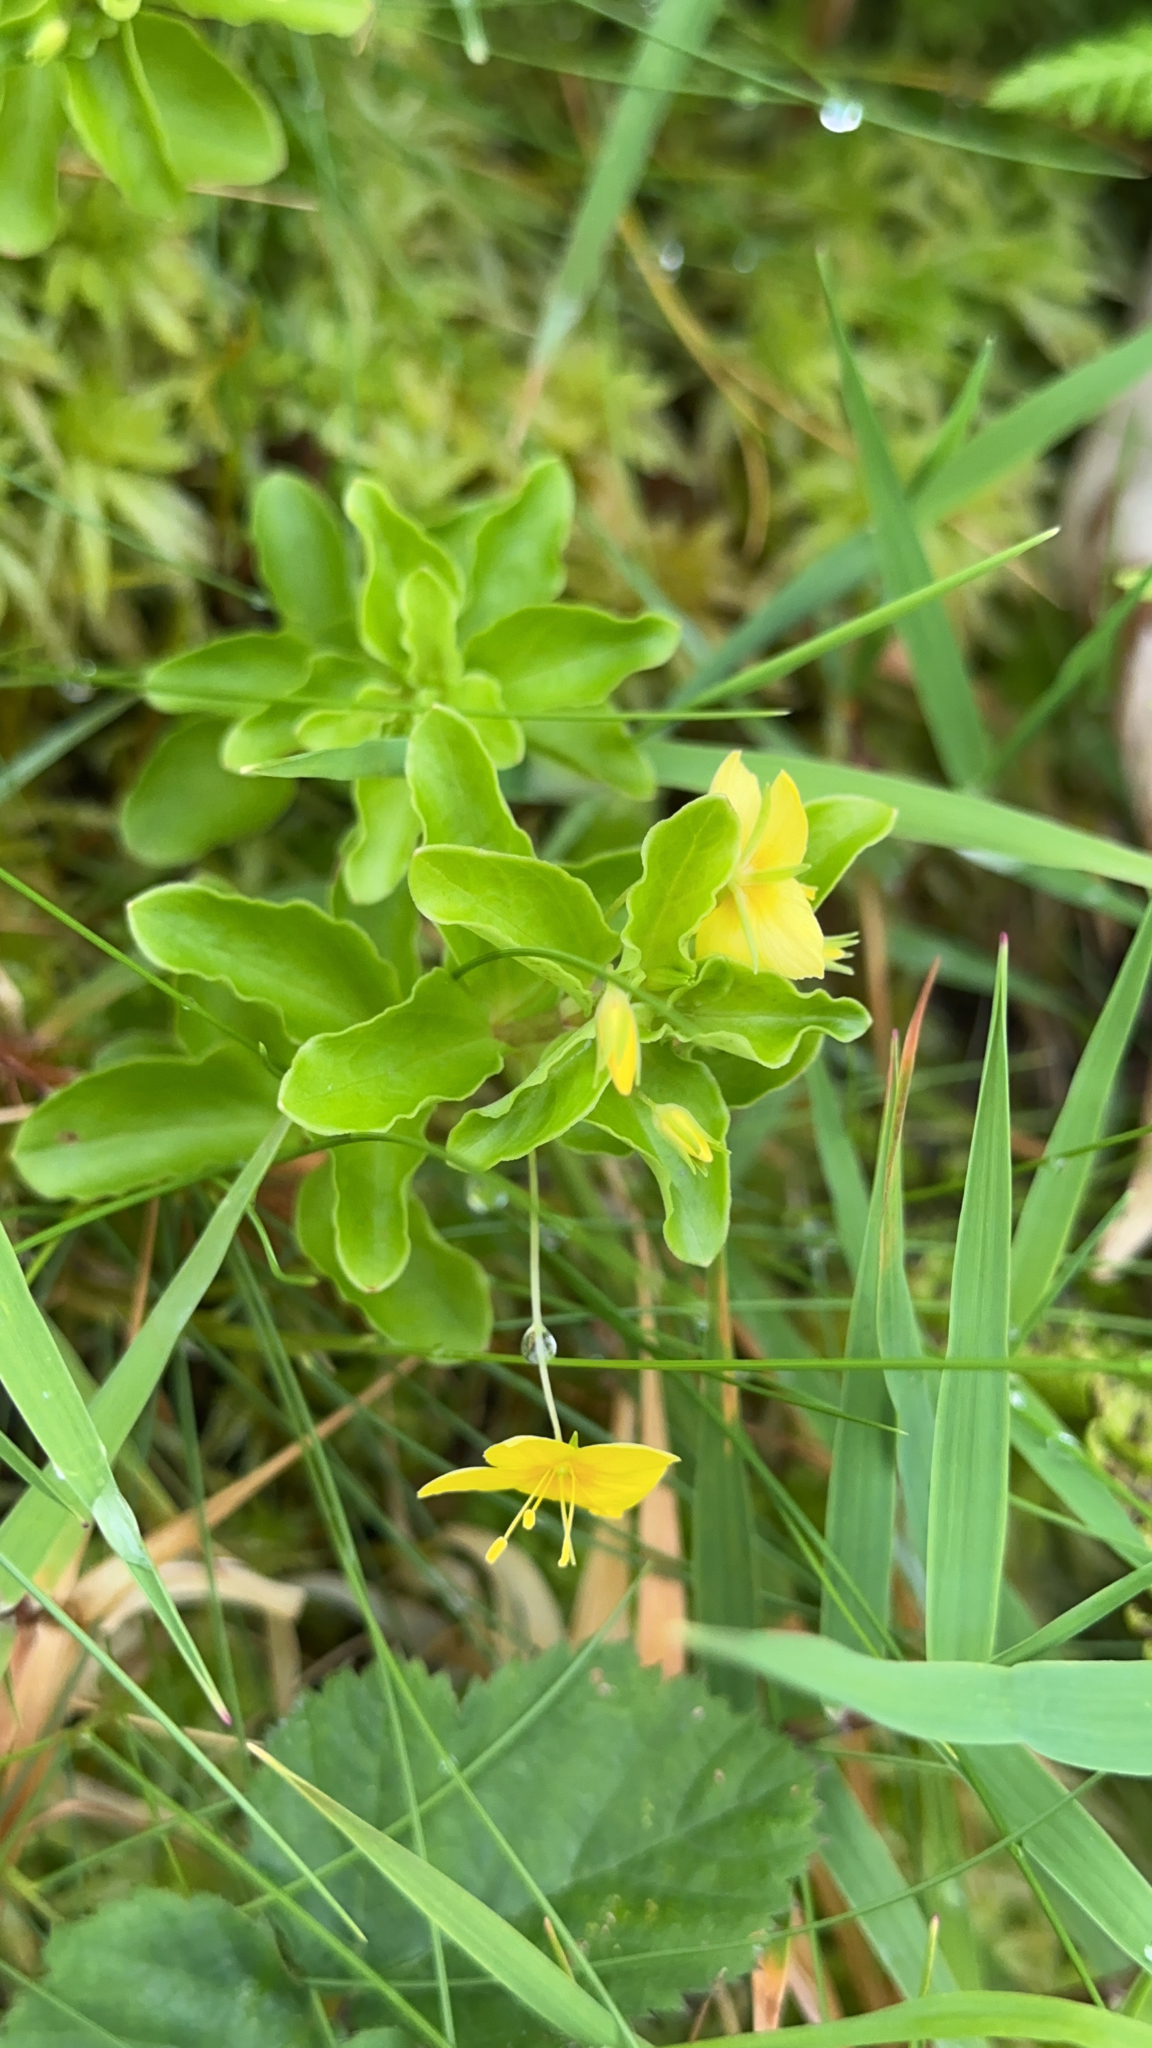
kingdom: Plantae
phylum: Tracheophyta
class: Magnoliopsida
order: Ericales
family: Primulaceae
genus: Lysimachia
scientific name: Lysimachia azorica
